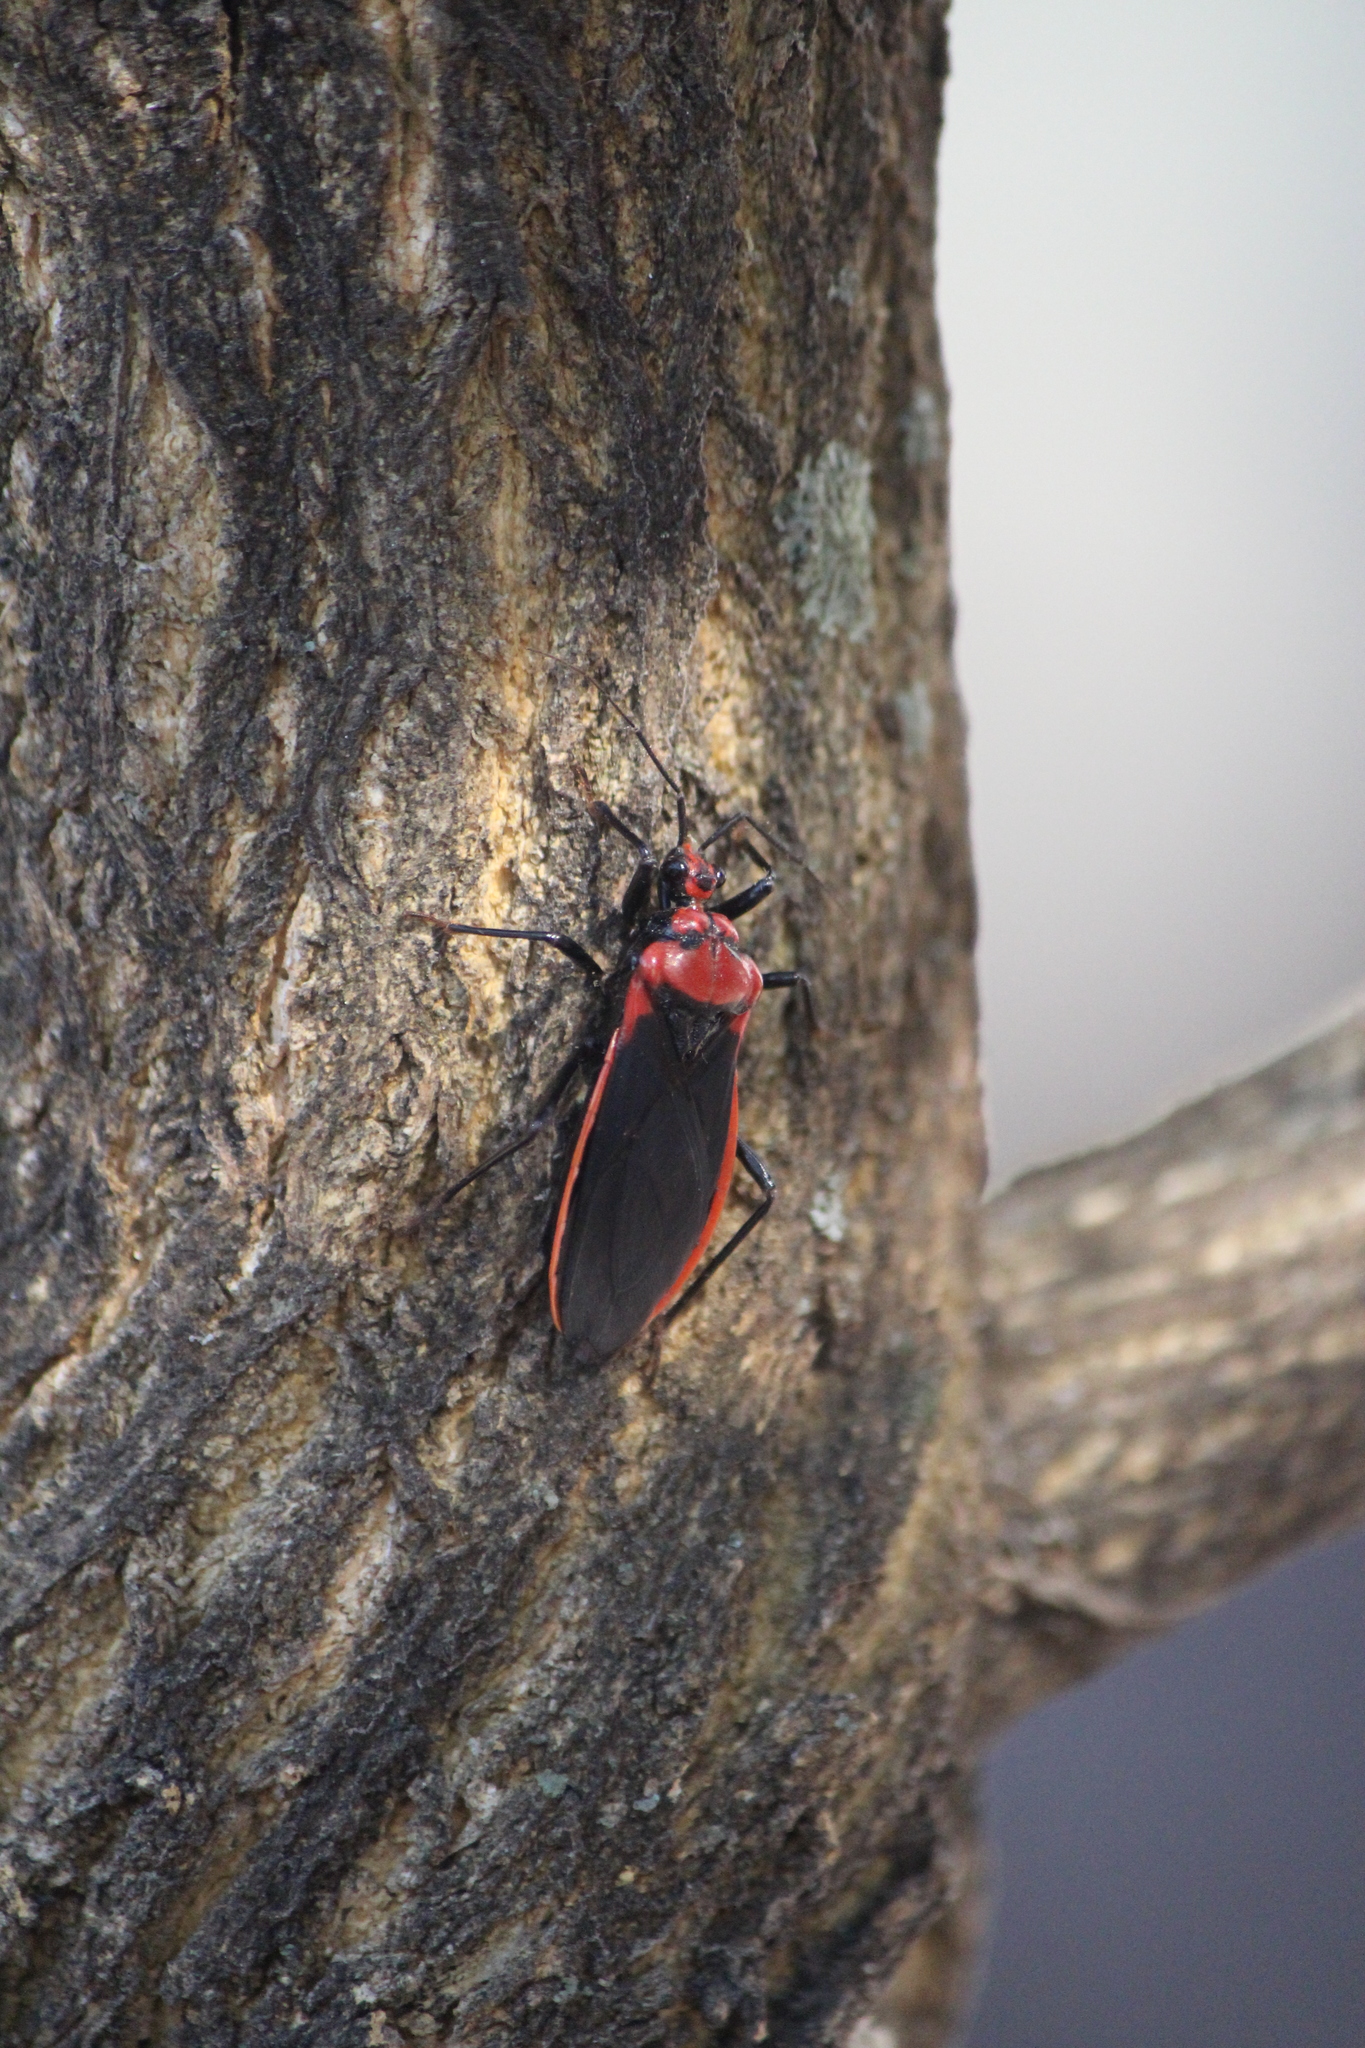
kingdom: Animalia
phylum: Arthropoda
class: Insecta
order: Hemiptera
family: Reduviidae
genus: Rhiginia
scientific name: Rhiginia cinctiventris
